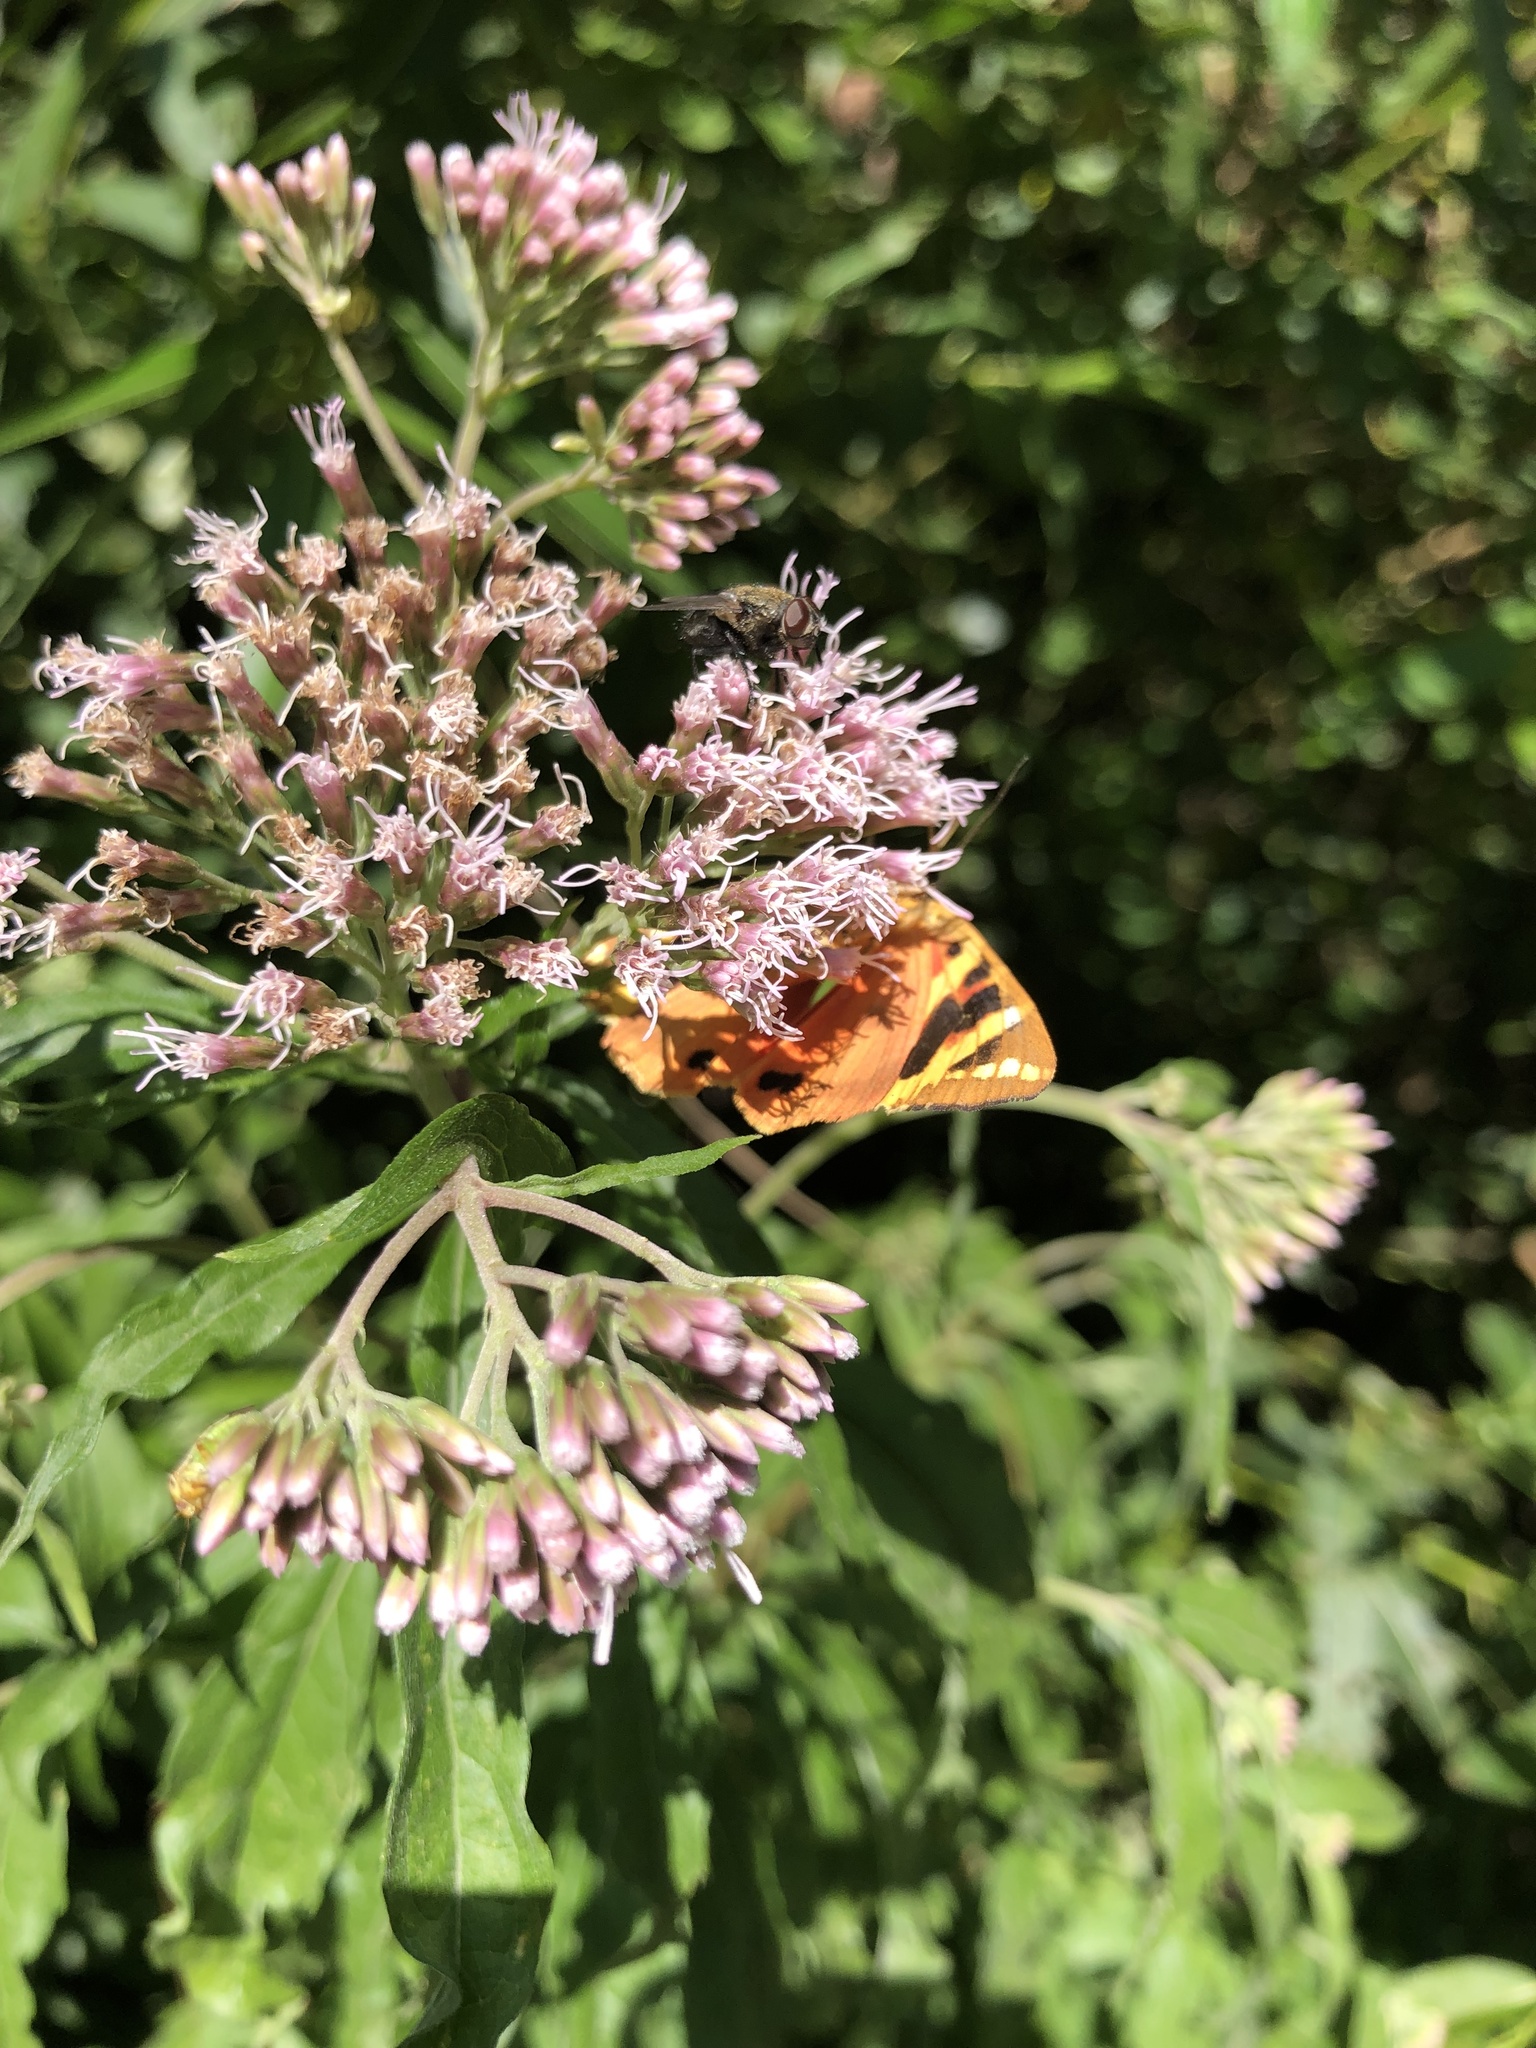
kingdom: Animalia
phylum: Arthropoda
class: Insecta
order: Lepidoptera
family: Erebidae
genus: Euplagia
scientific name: Euplagia quadripunctaria
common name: Jersey tiger
